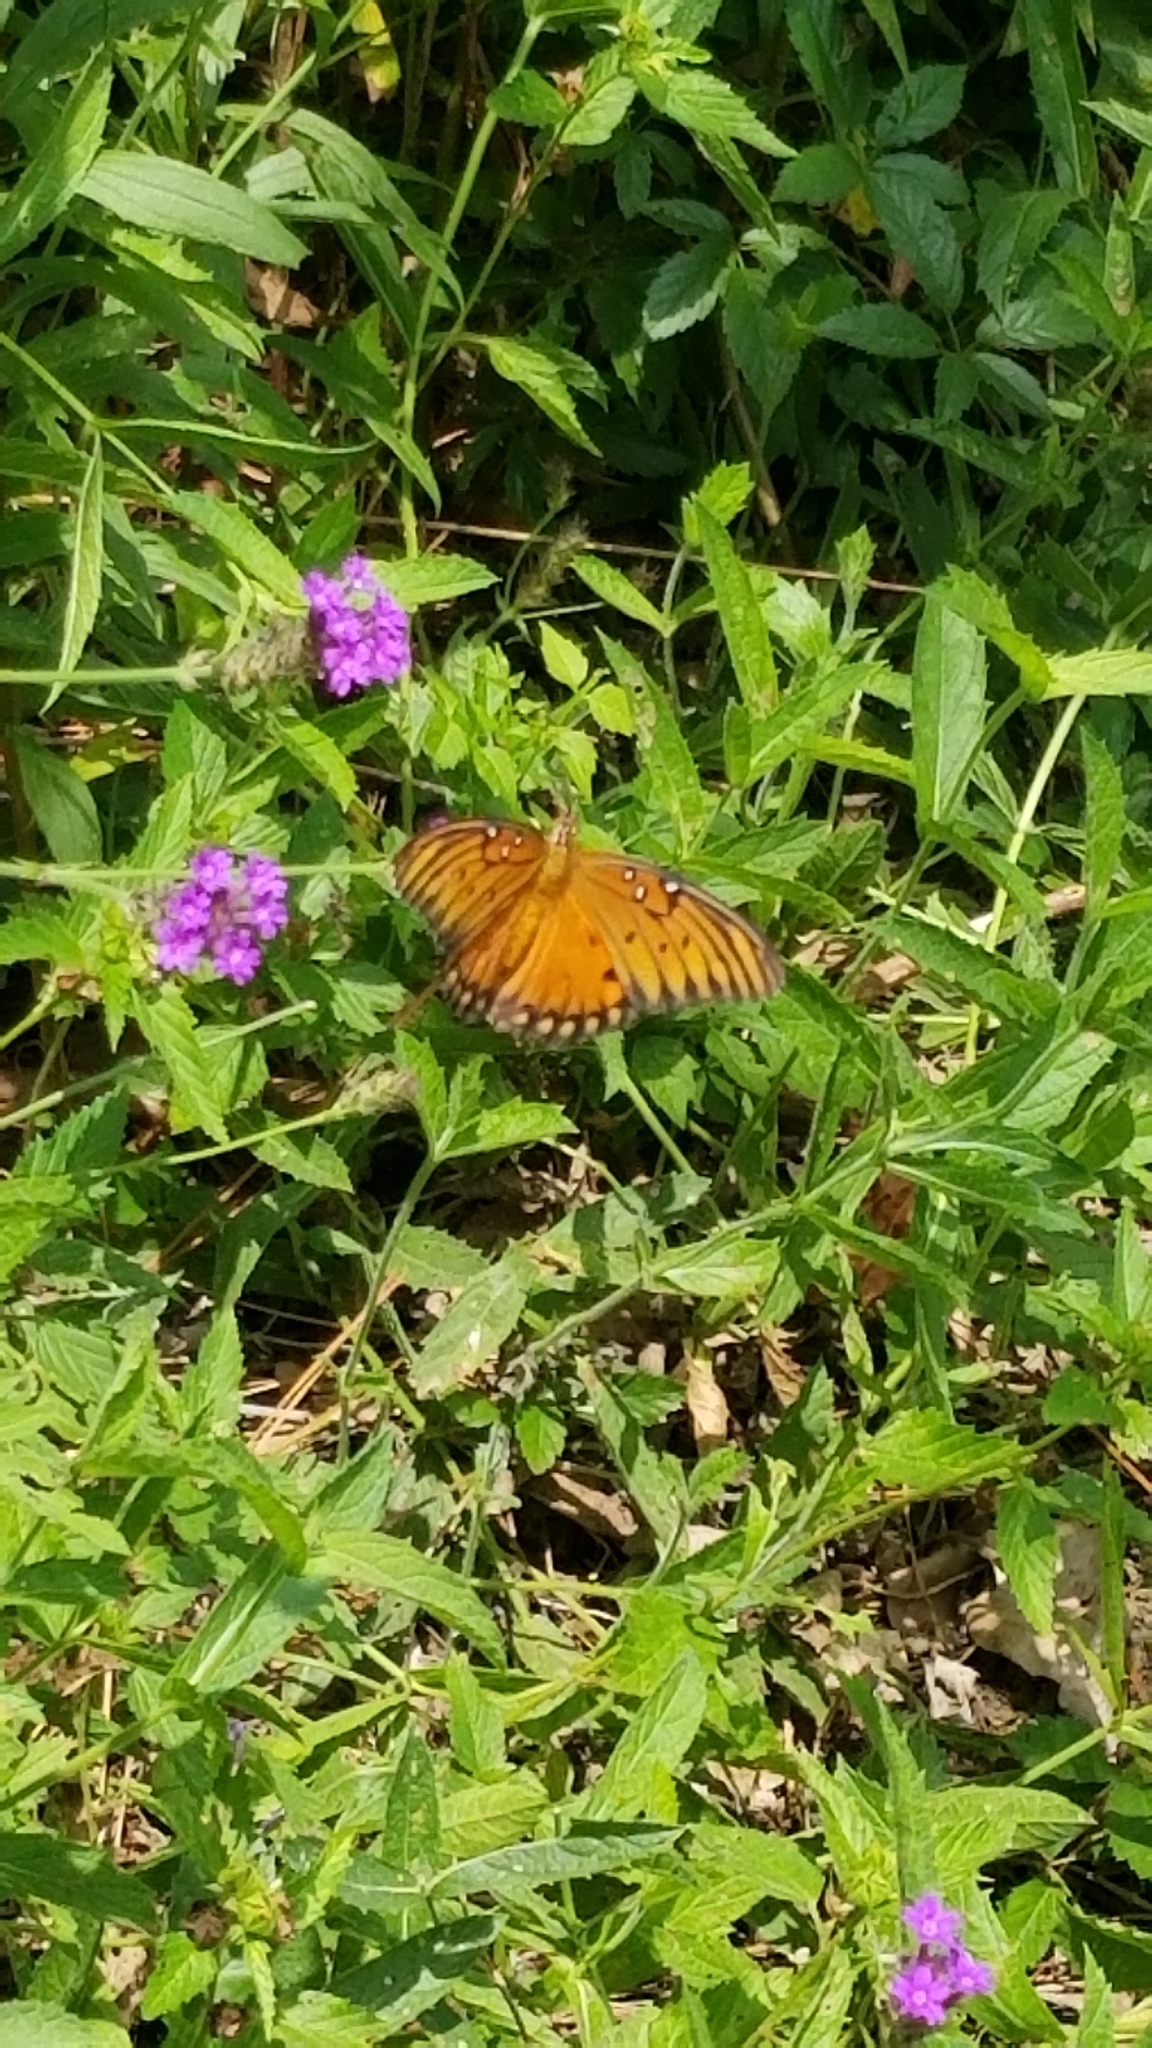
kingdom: Animalia
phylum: Arthropoda
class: Insecta
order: Lepidoptera
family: Nymphalidae
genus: Dione
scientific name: Dione vanillae
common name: Gulf fritillary
